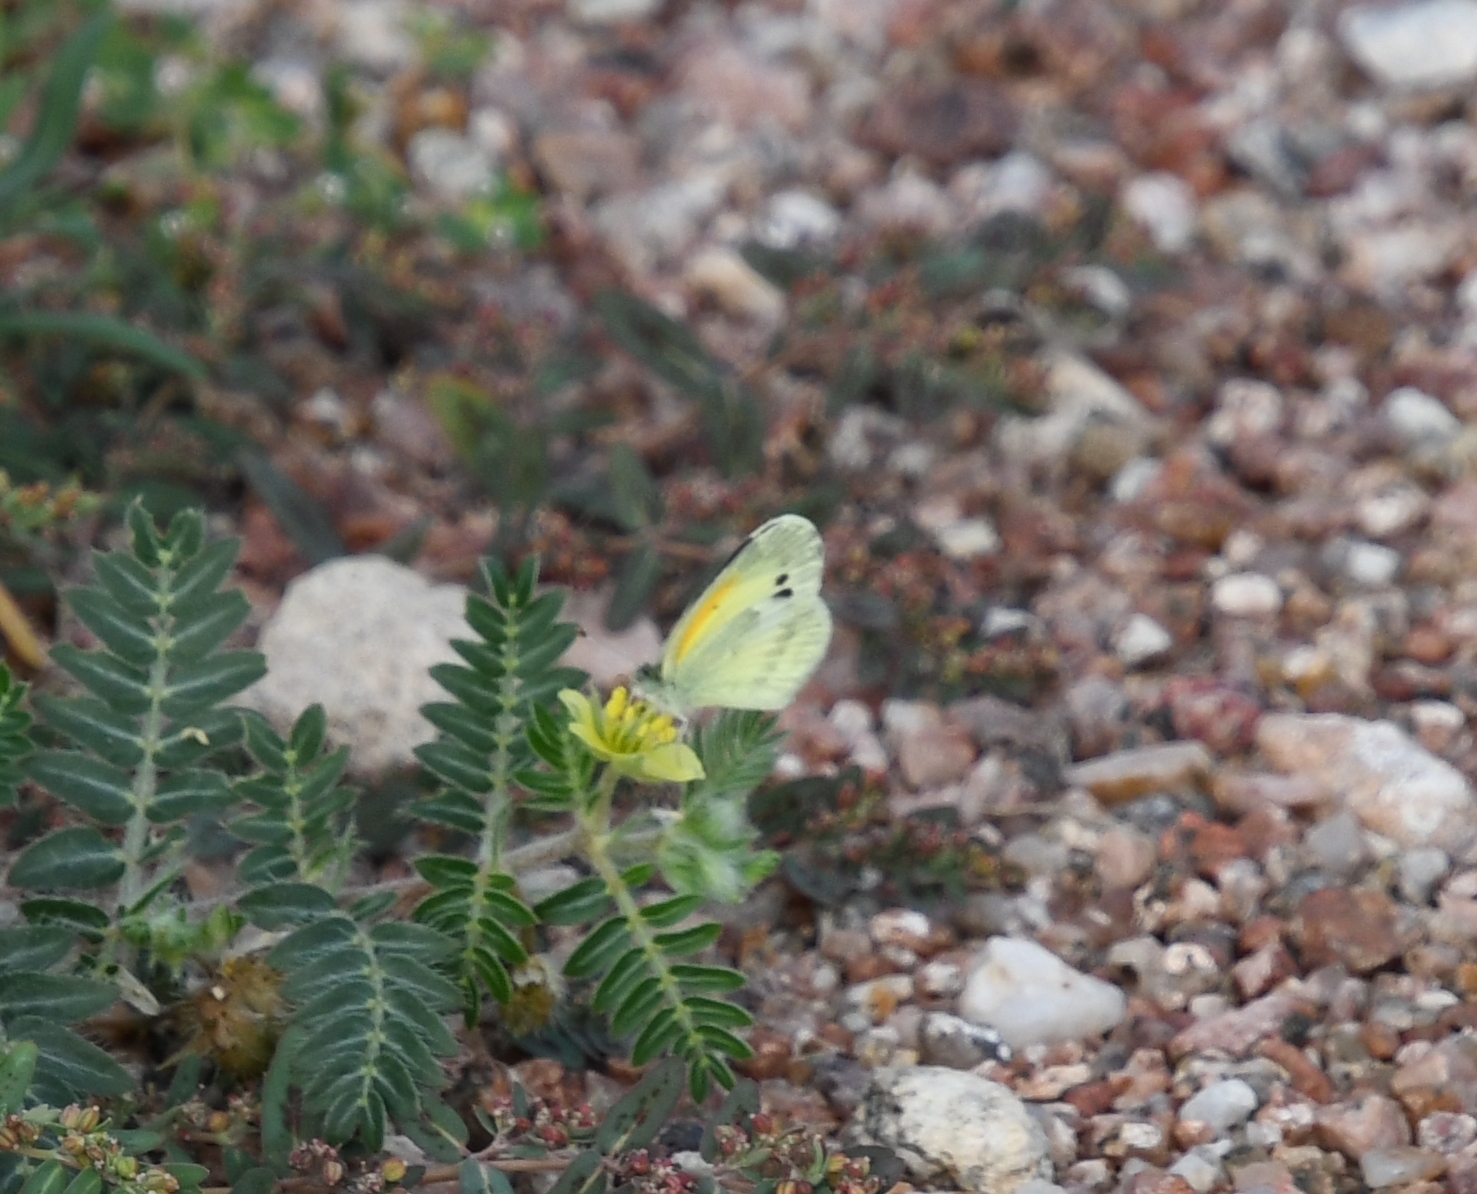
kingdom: Animalia
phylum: Arthropoda
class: Insecta
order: Lepidoptera
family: Pieridae
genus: Nathalis
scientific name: Nathalis iole
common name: Dainty sulphur
